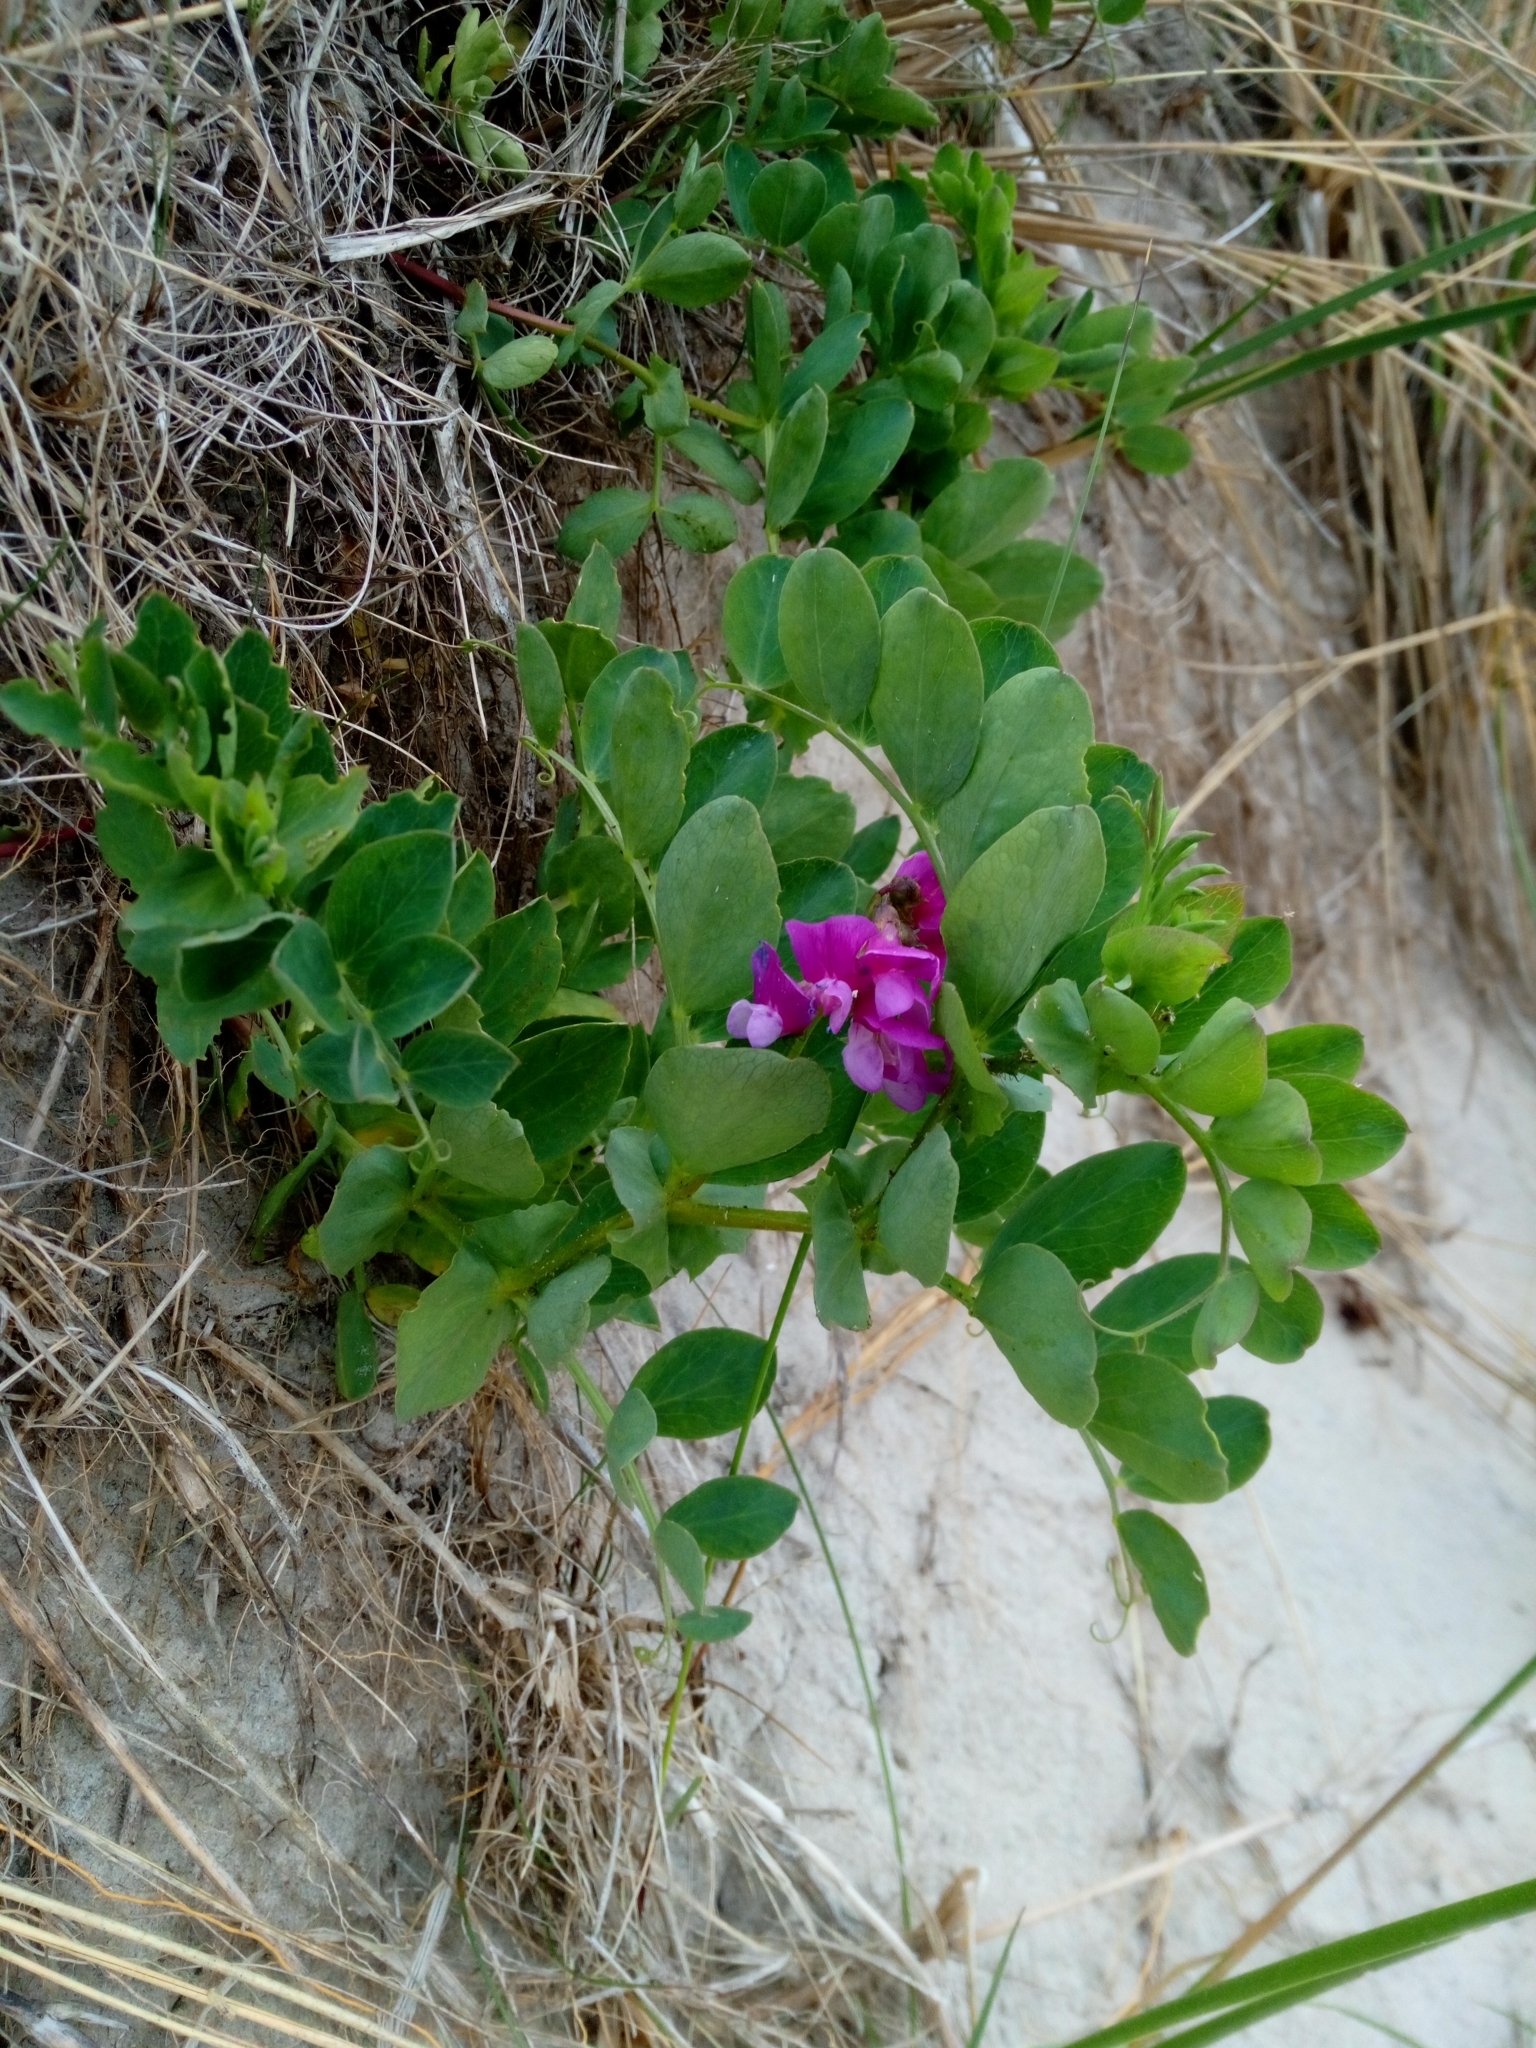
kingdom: Plantae
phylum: Tracheophyta
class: Magnoliopsida
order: Fabales
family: Fabaceae
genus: Lathyrus
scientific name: Lathyrus japonicus
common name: Sea pea
